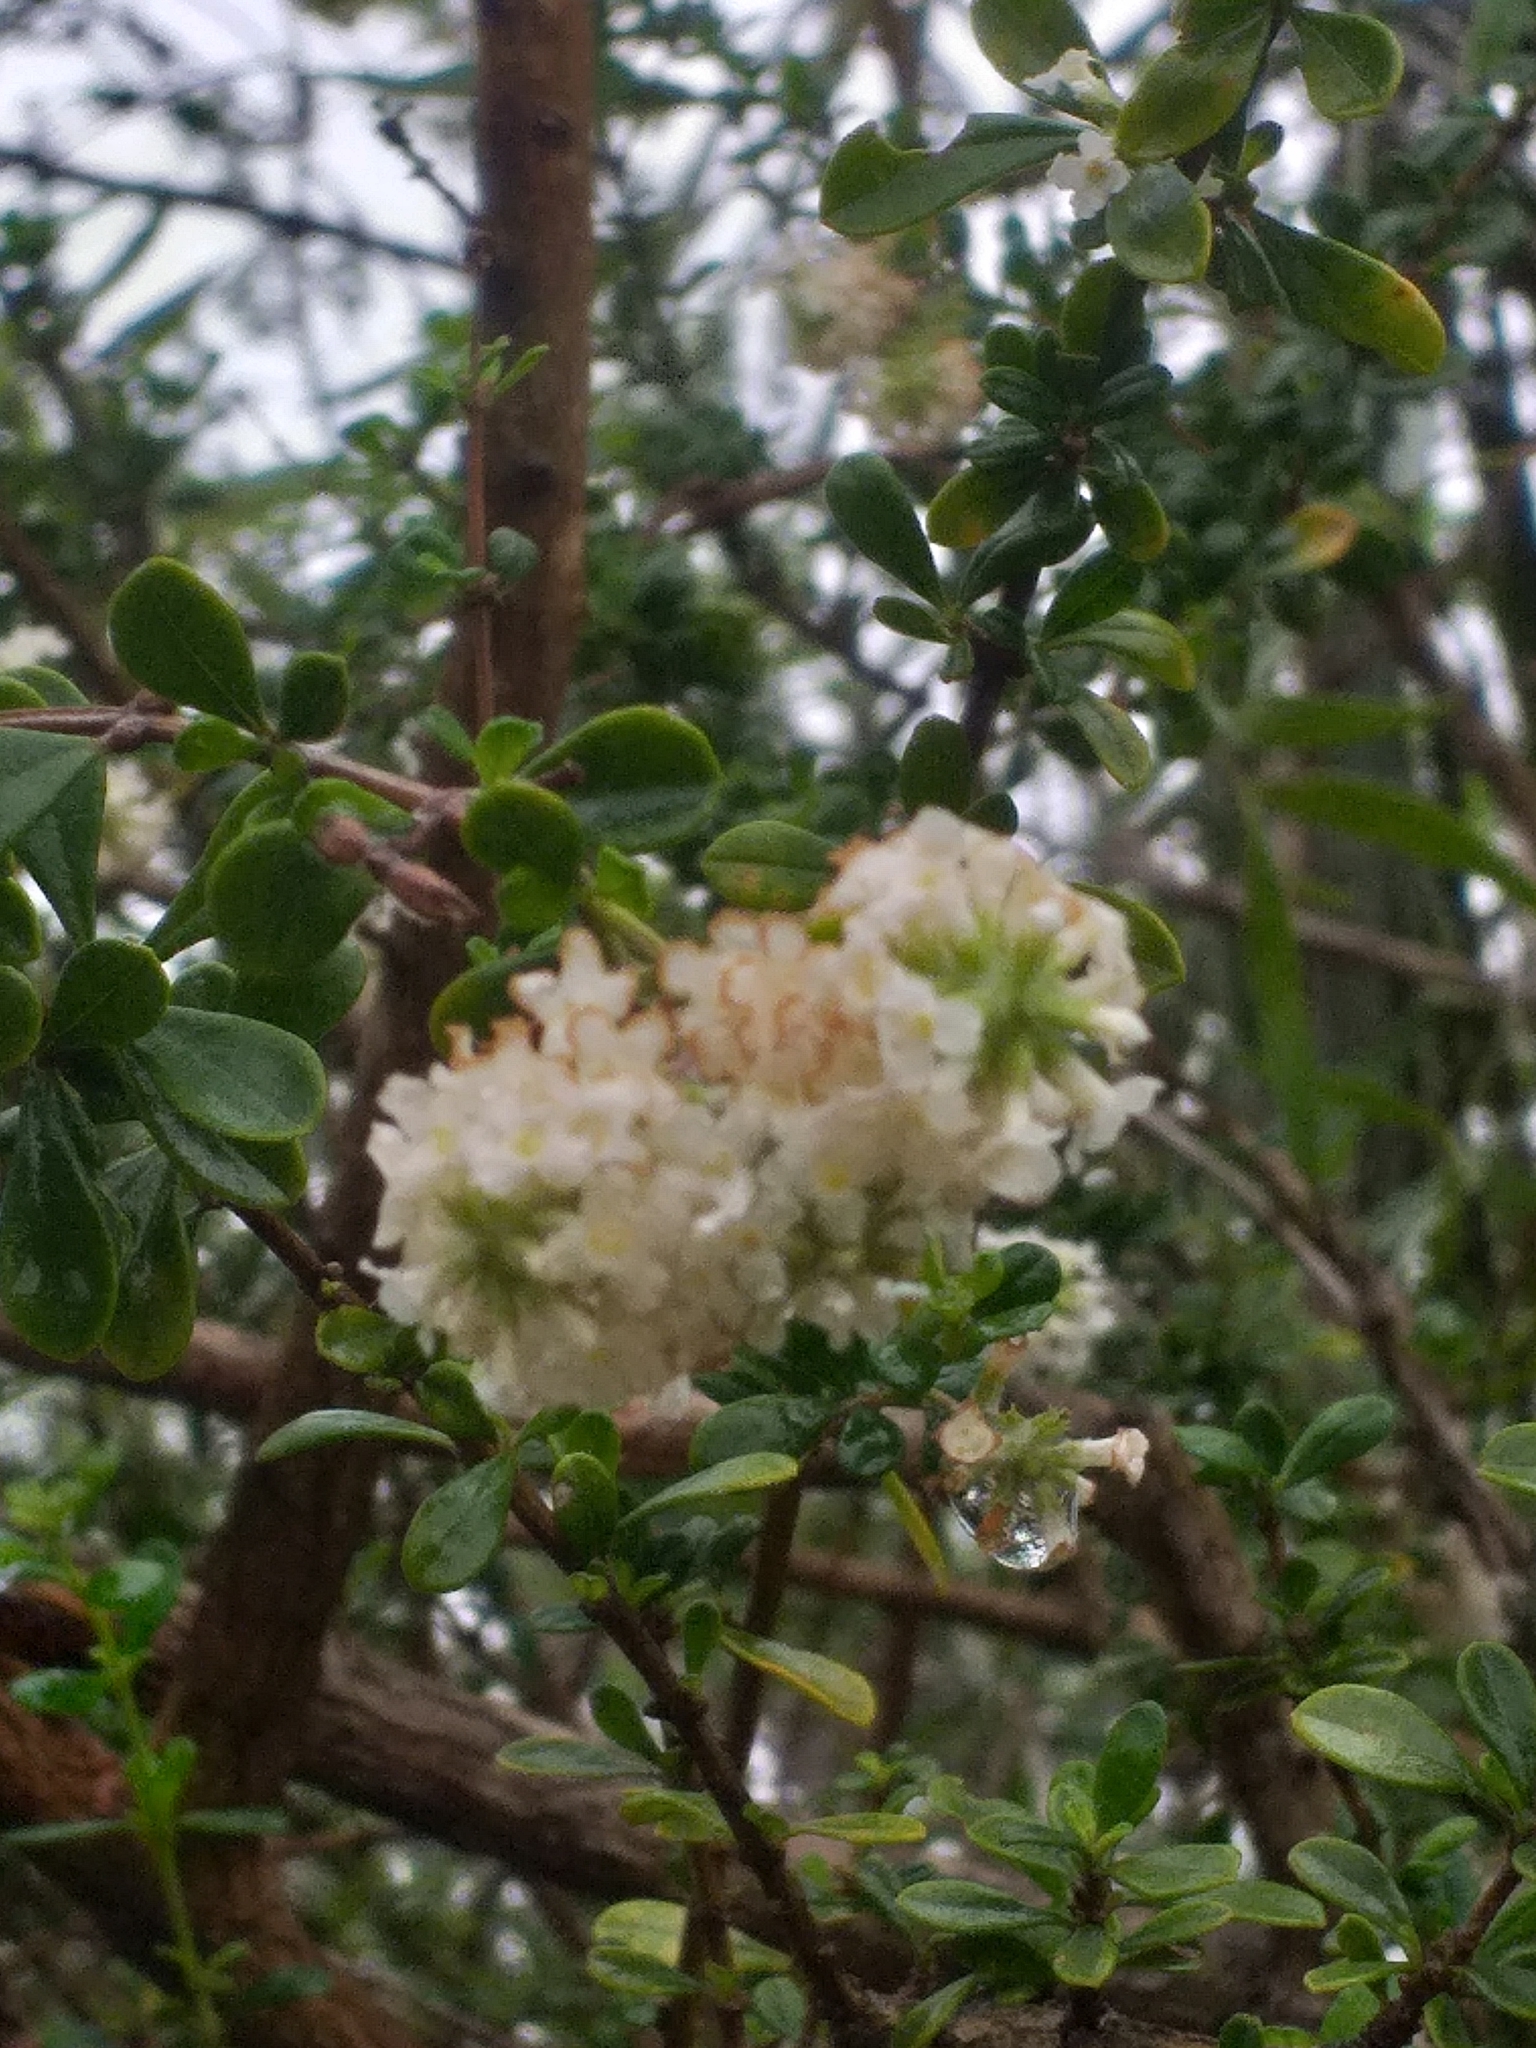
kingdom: Plantae
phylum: Tracheophyta
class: Magnoliopsida
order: Lamiales
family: Verbenaceae
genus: Aloysia
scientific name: Aloysia gratissima
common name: Common bee-brush
